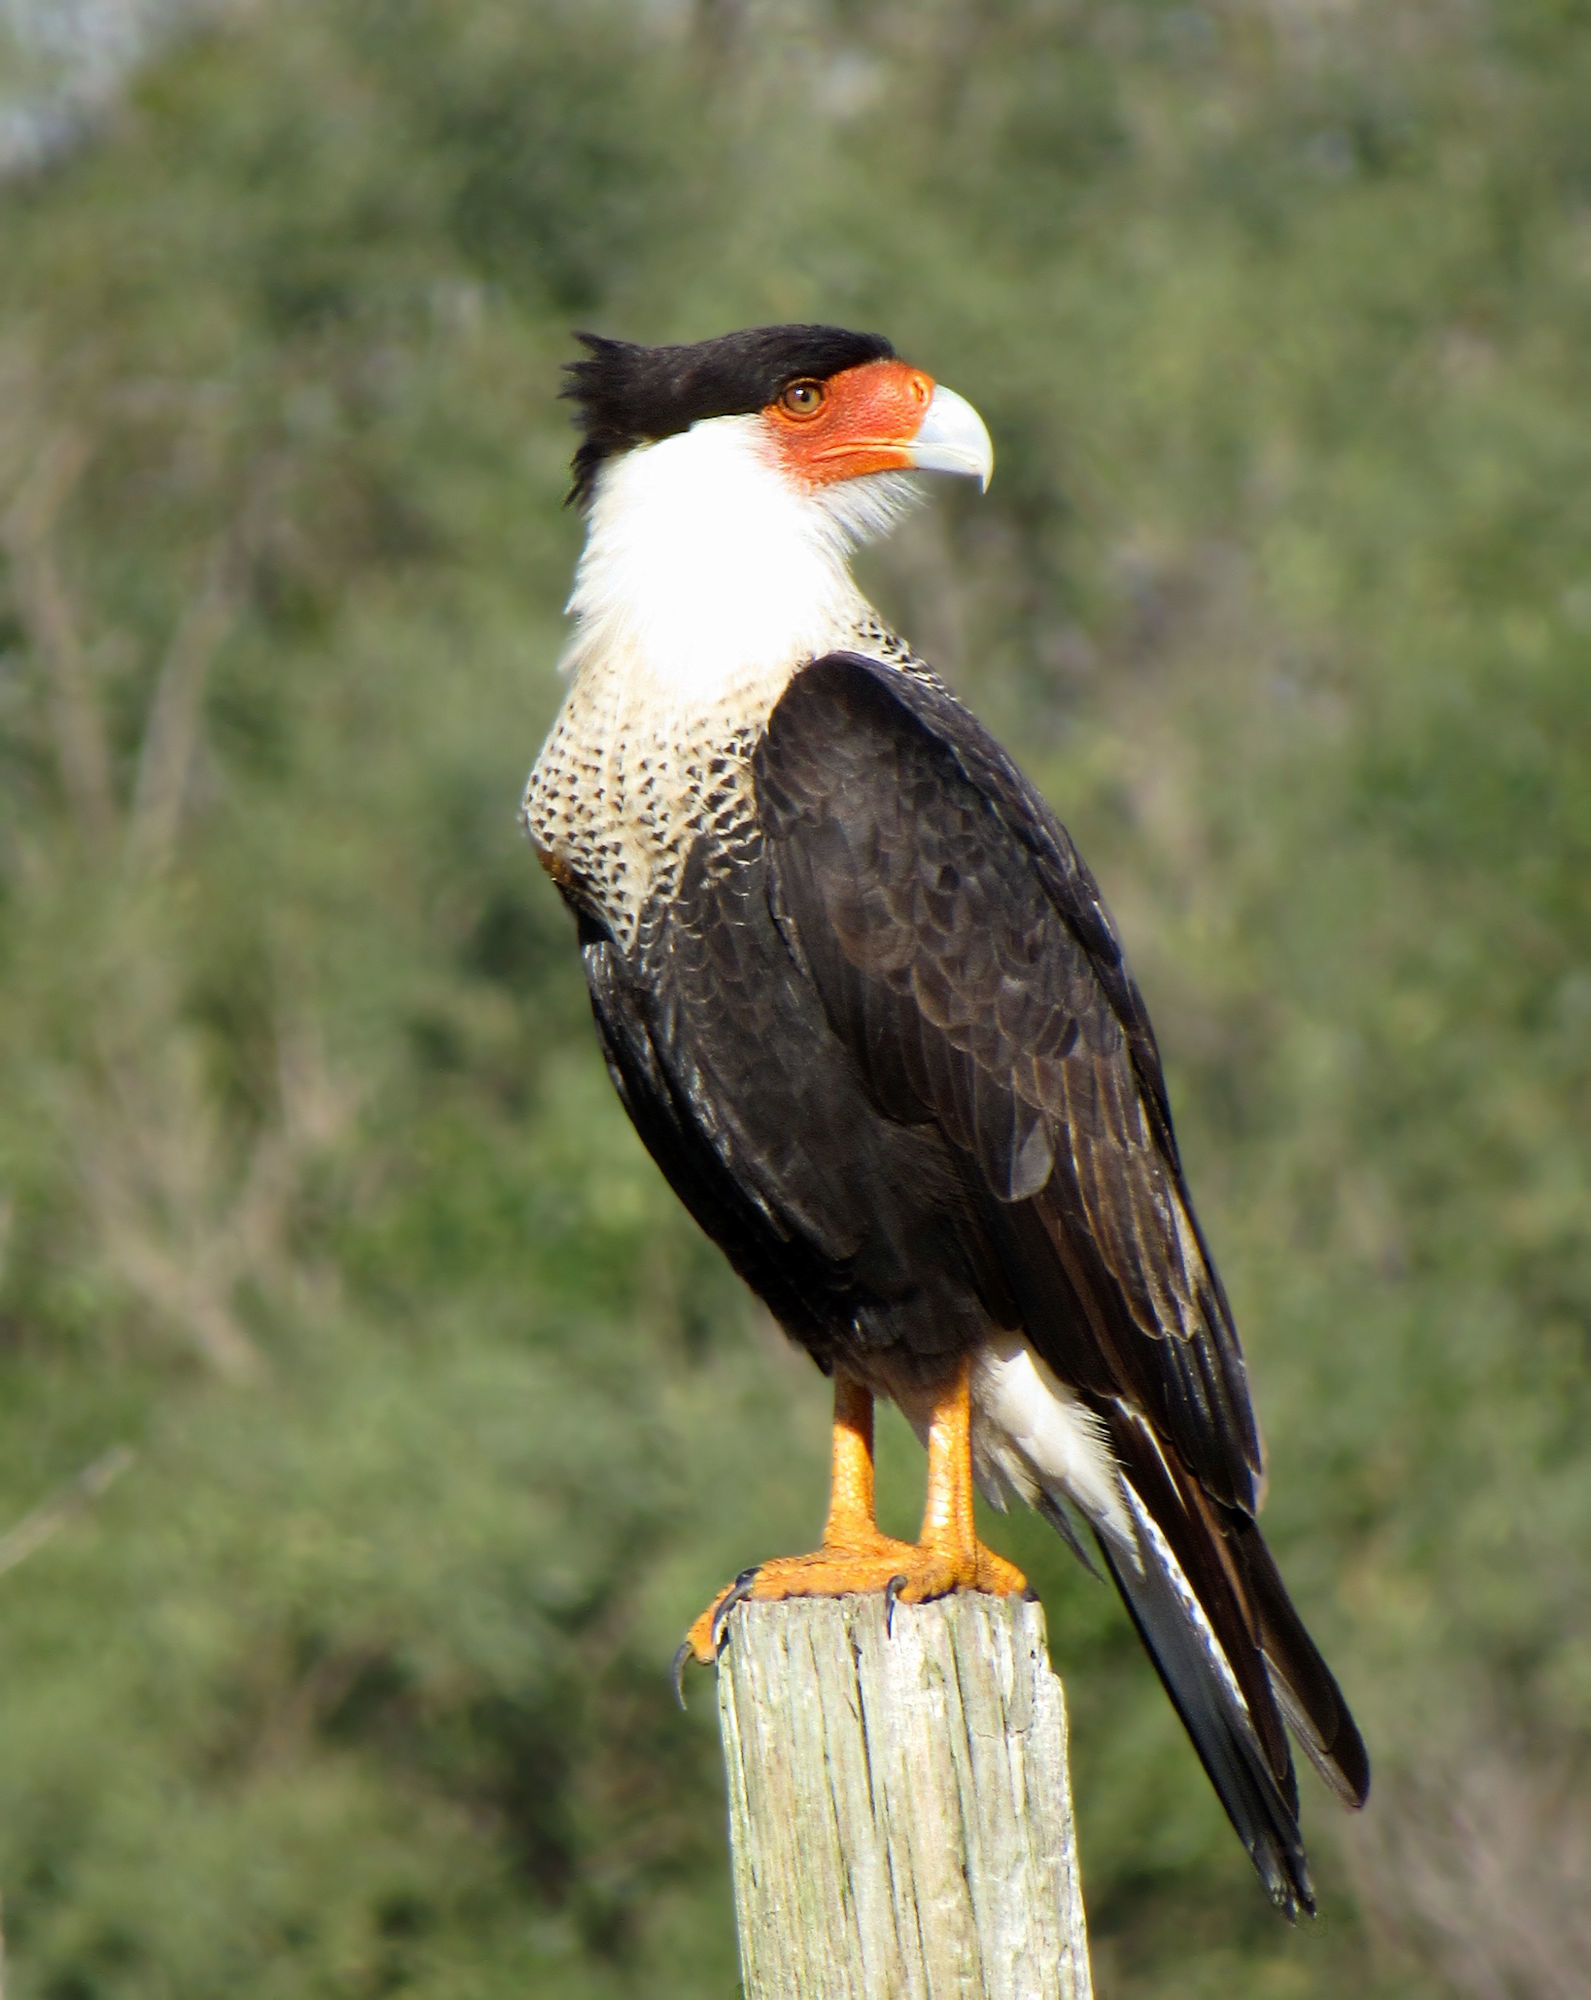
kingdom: Animalia
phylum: Chordata
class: Aves
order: Falconiformes
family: Falconidae
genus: Caracara
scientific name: Caracara plancus
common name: Southern caracara
